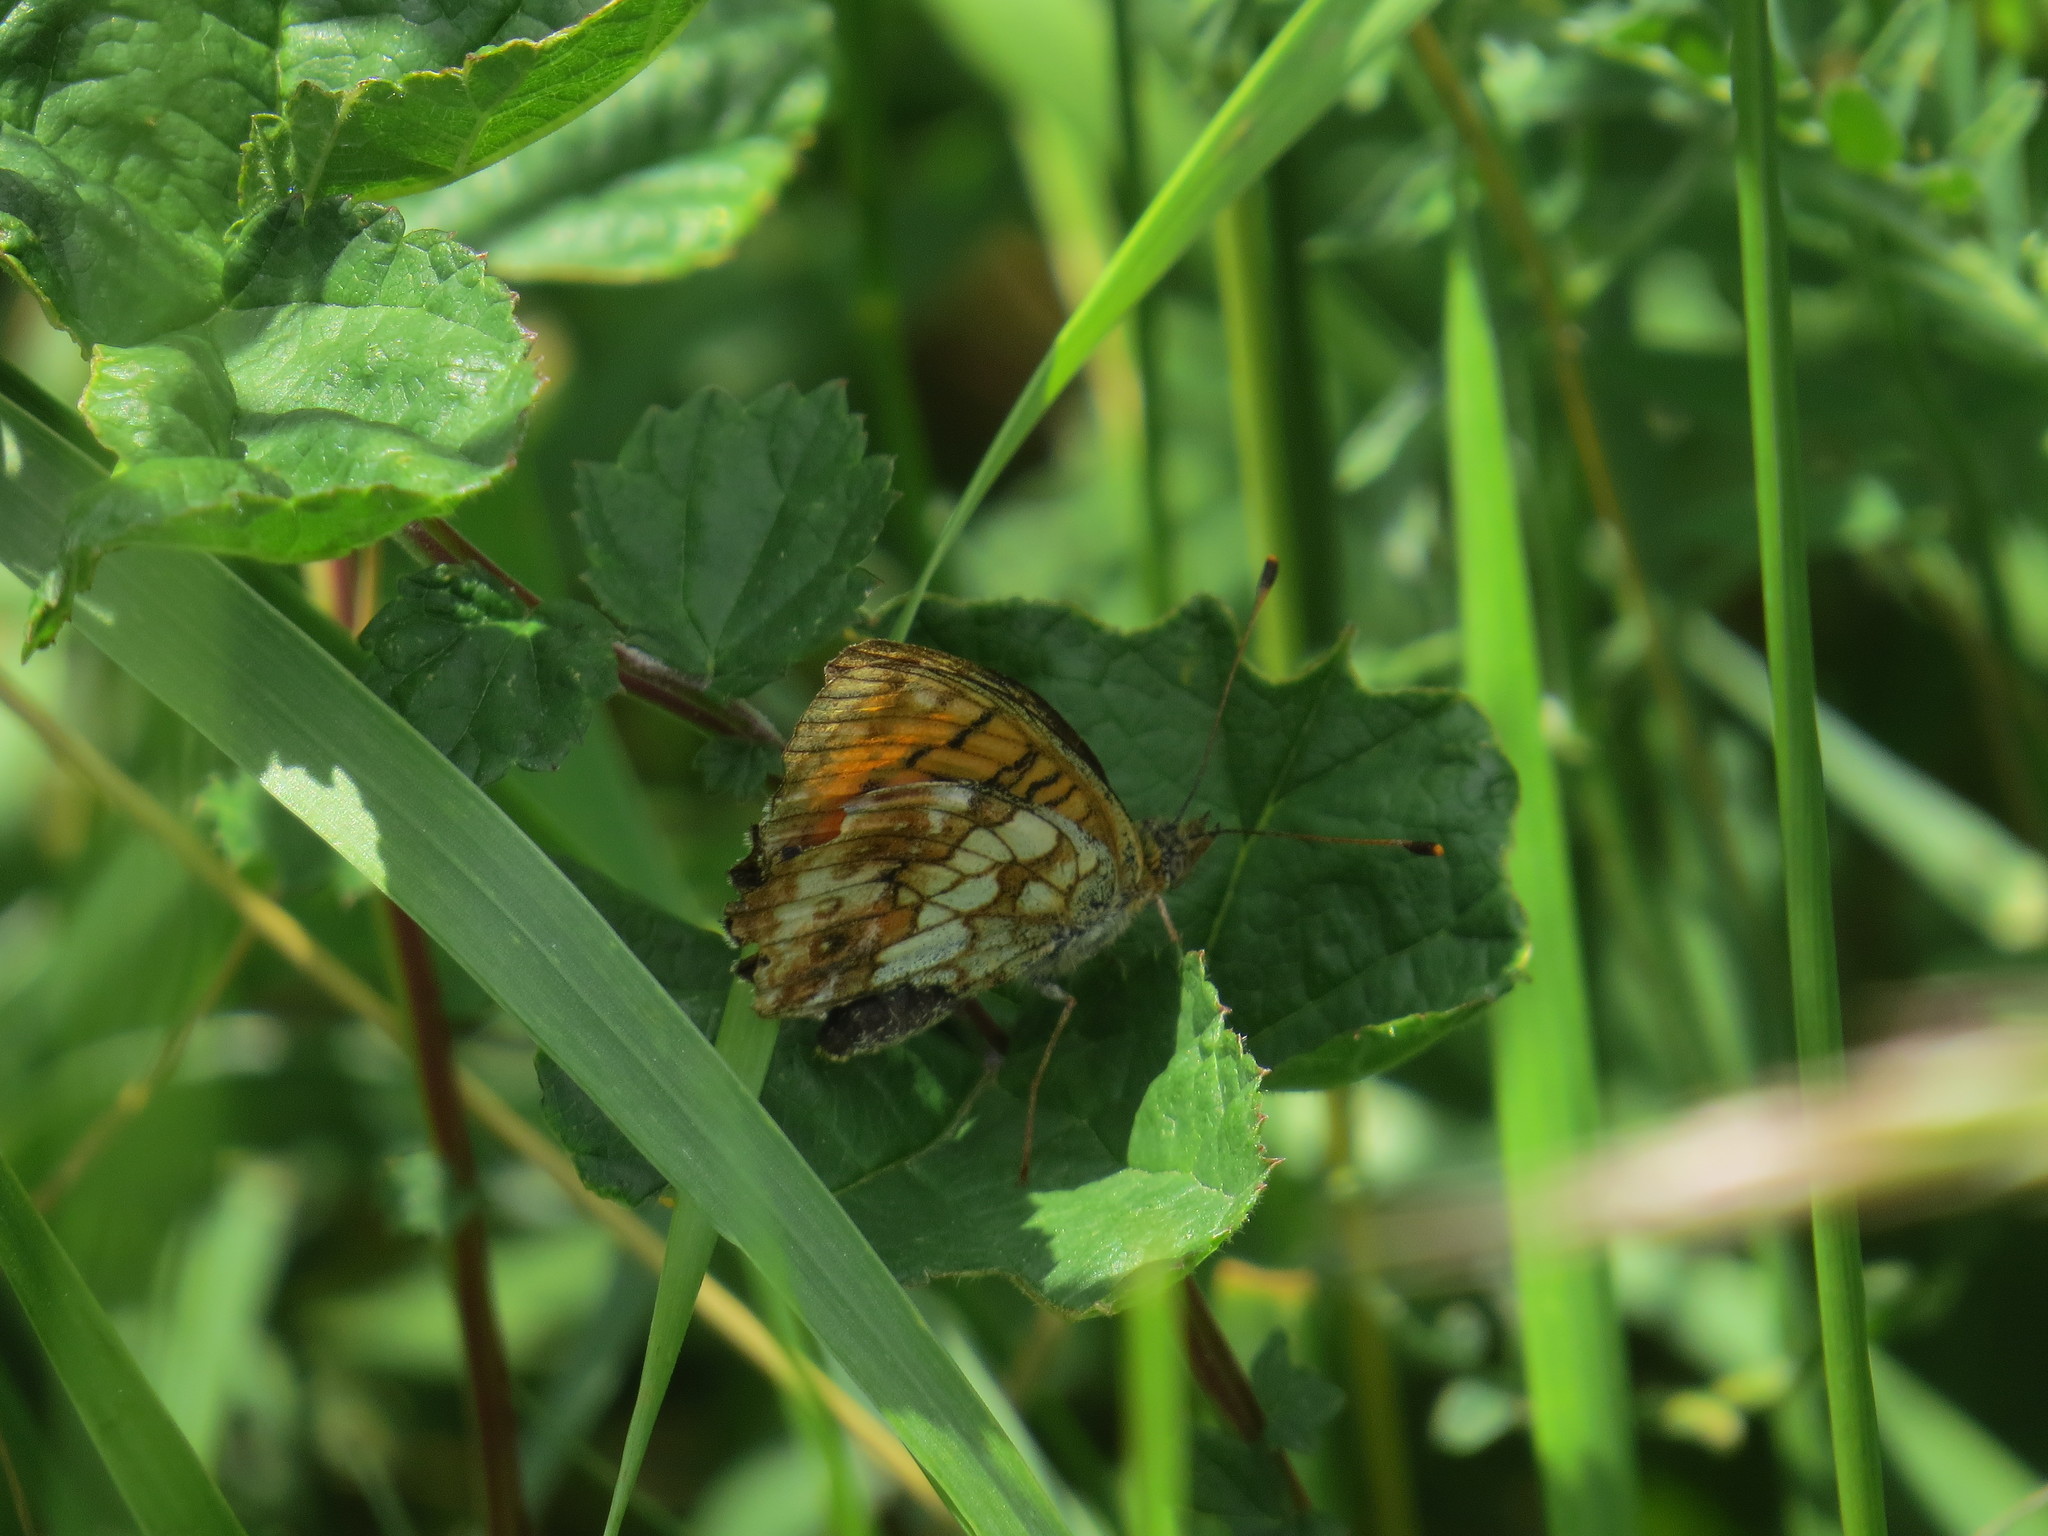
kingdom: Animalia
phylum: Arthropoda
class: Insecta
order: Lepidoptera
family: Nymphalidae
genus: Brenthis
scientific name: Brenthis ino
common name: Lesser marbled fritillary
